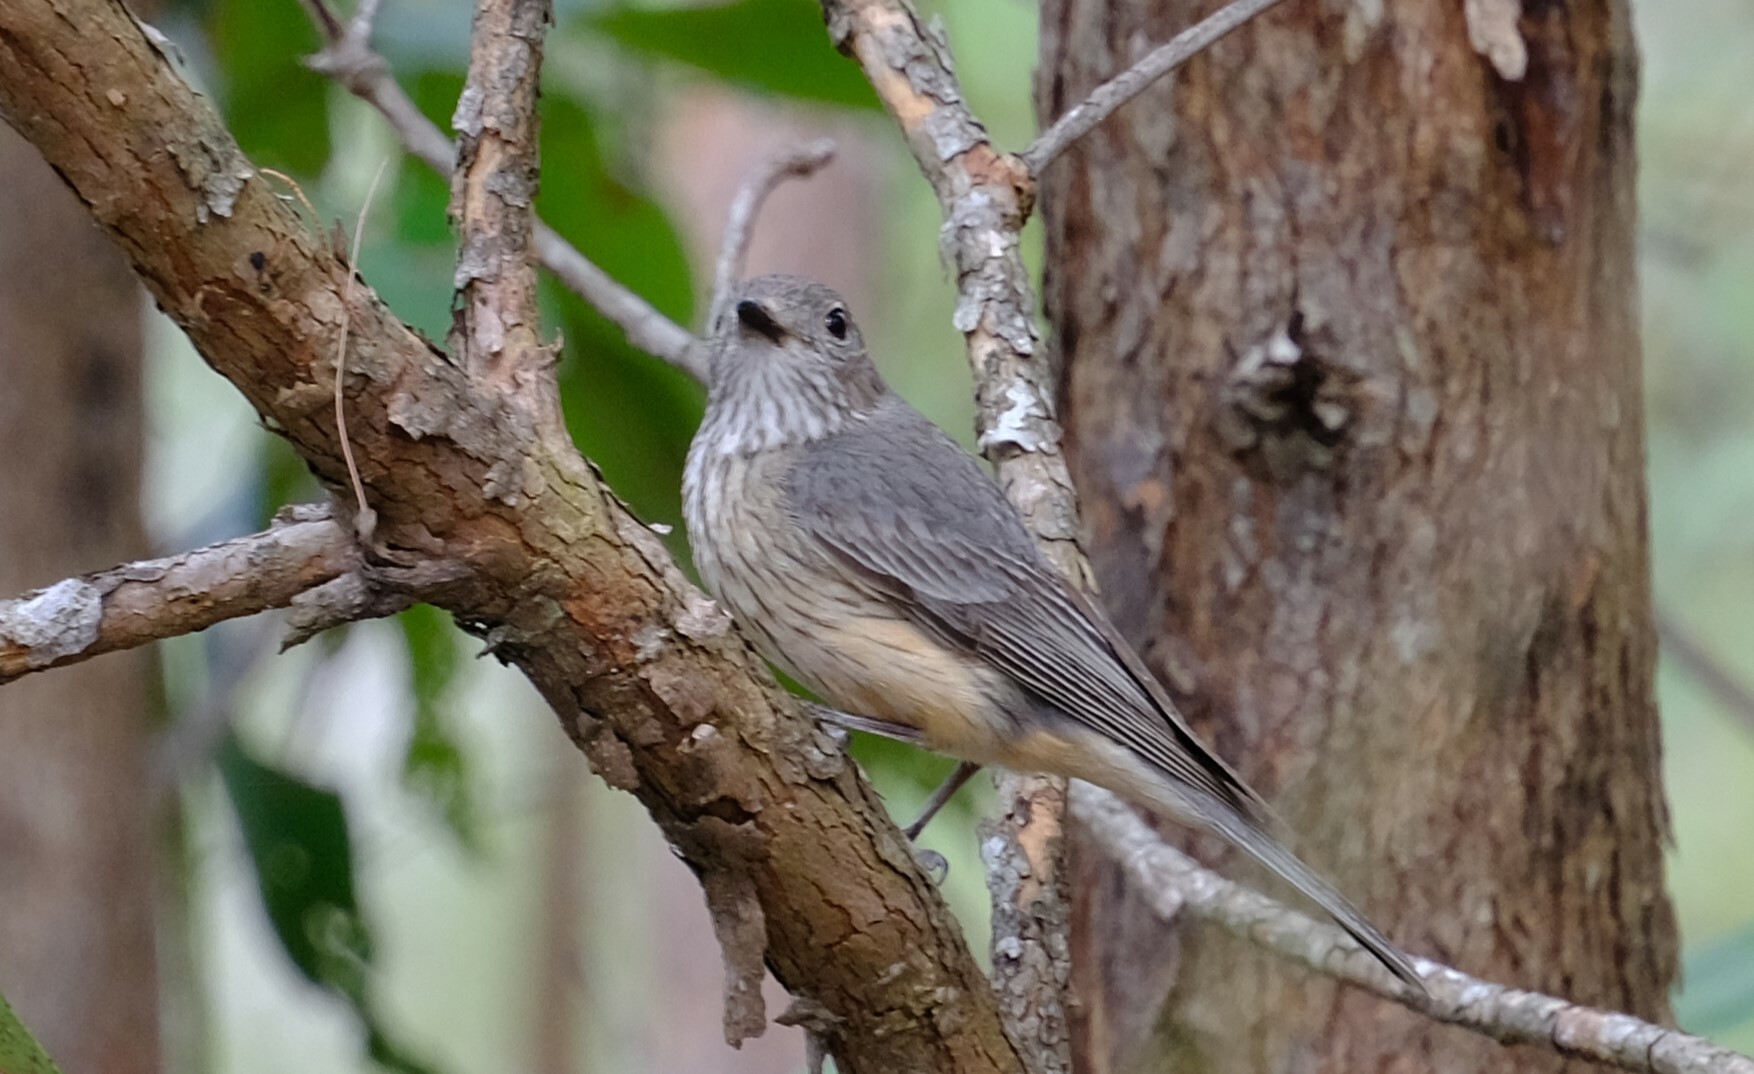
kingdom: Animalia
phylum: Chordata
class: Aves
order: Passeriformes
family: Pachycephalidae
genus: Pachycephala
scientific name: Pachycephala rufiventris
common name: Rufous whistler
